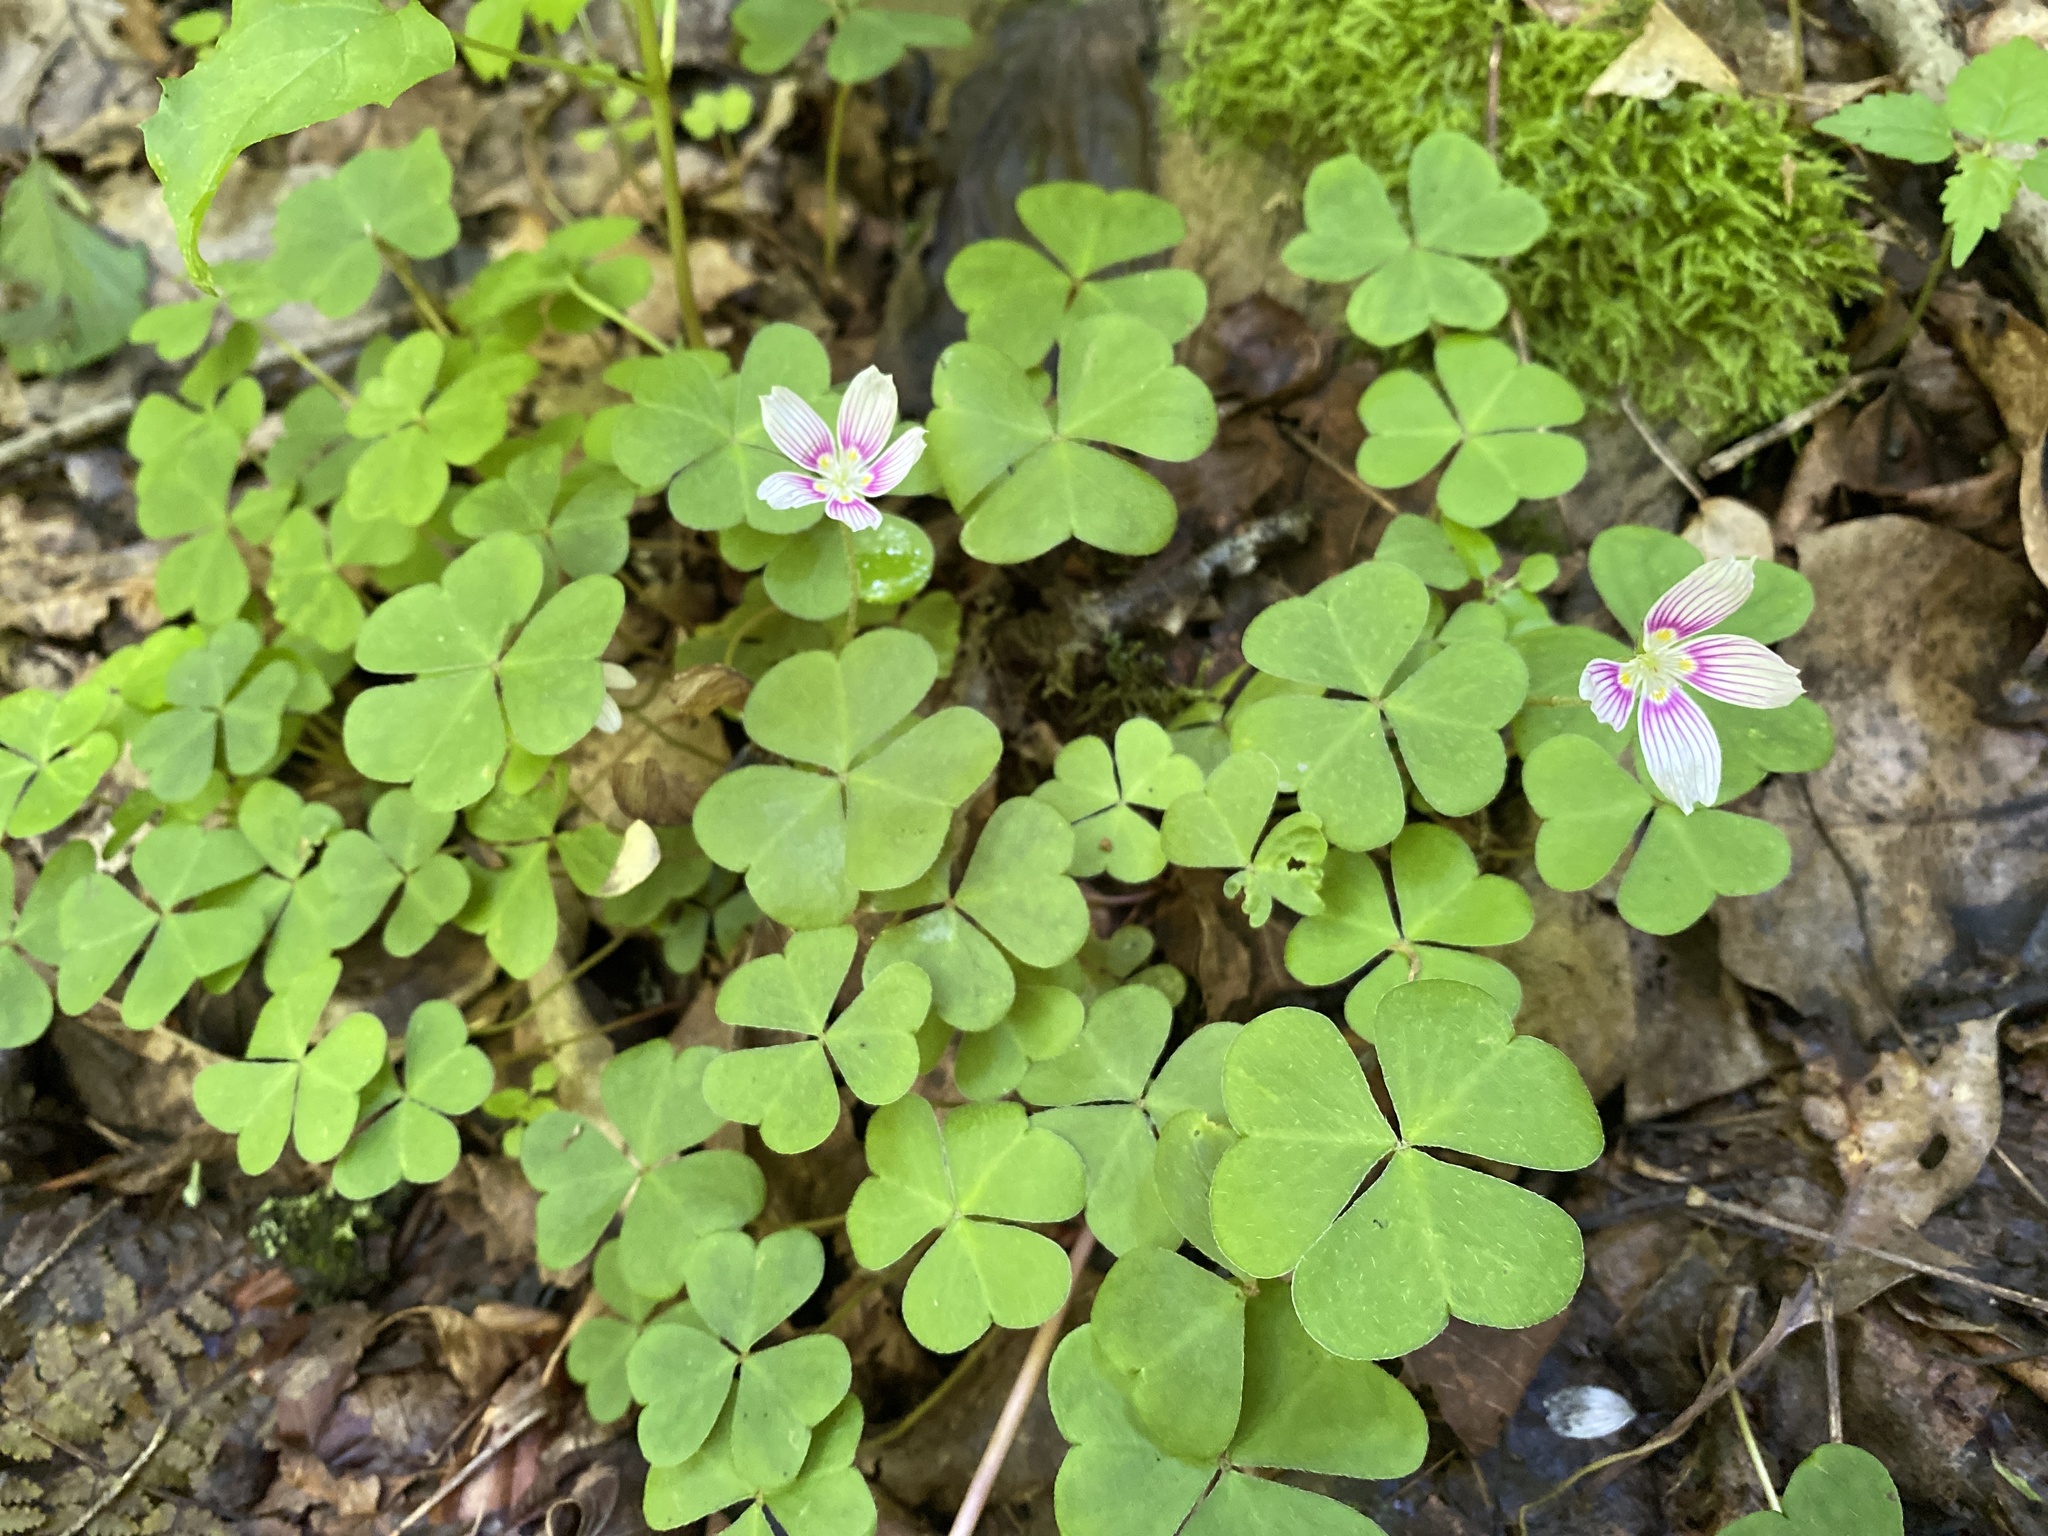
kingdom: Plantae
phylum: Tracheophyta
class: Magnoliopsida
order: Oxalidales
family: Oxalidaceae
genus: Oxalis
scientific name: Oxalis montana
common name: American wood-sorrel
